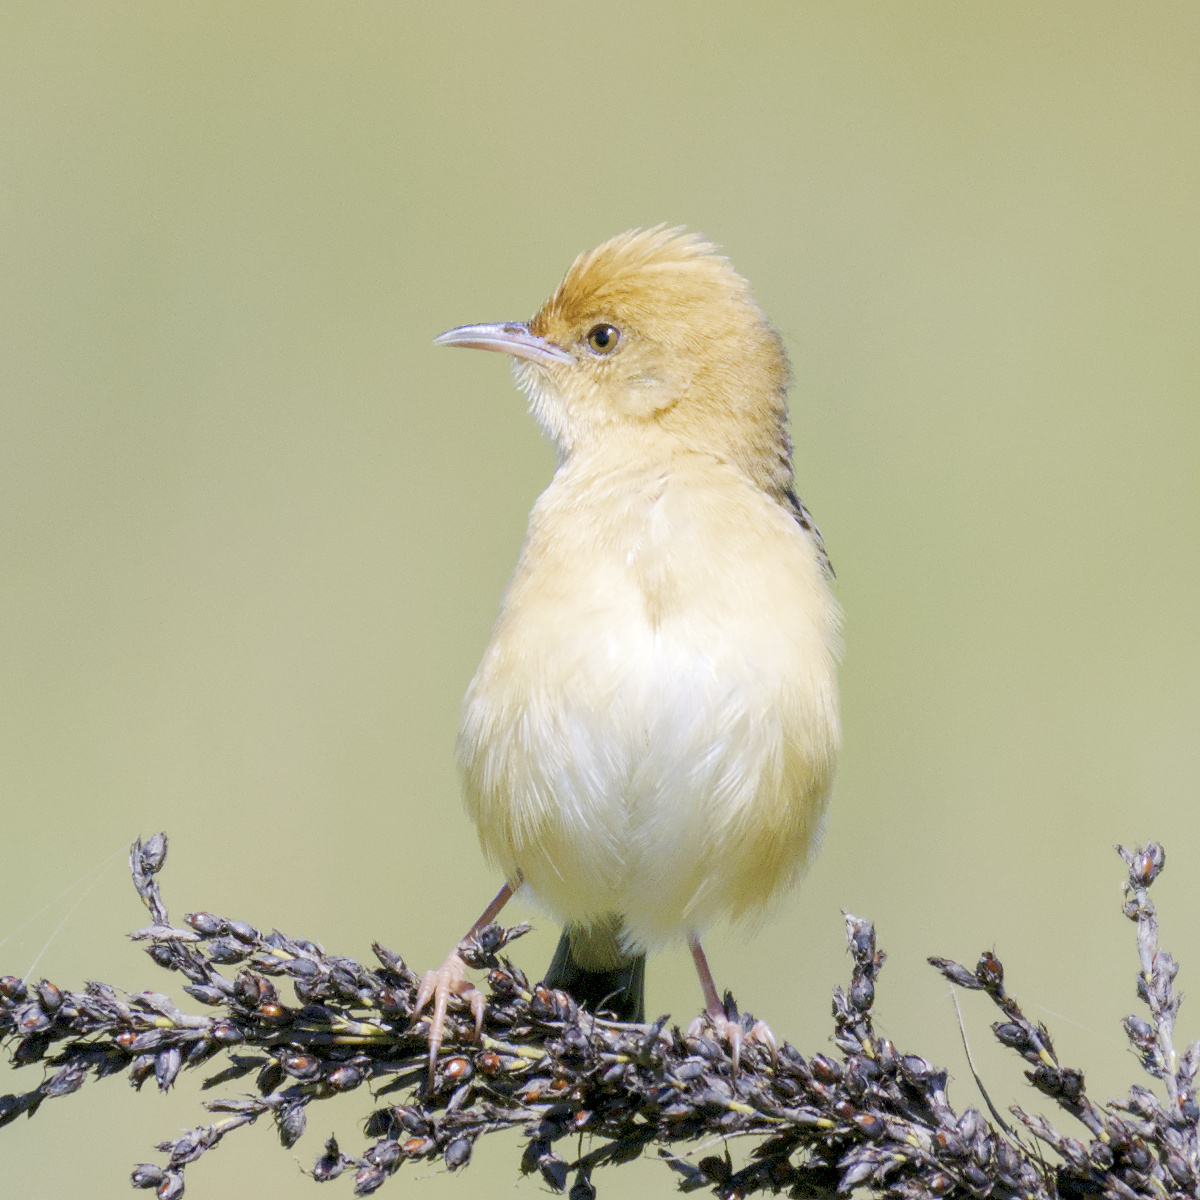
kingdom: Animalia
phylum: Chordata
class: Aves
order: Passeriformes
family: Cisticolidae
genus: Cisticola
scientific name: Cisticola exilis
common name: Golden-headed cisticola
